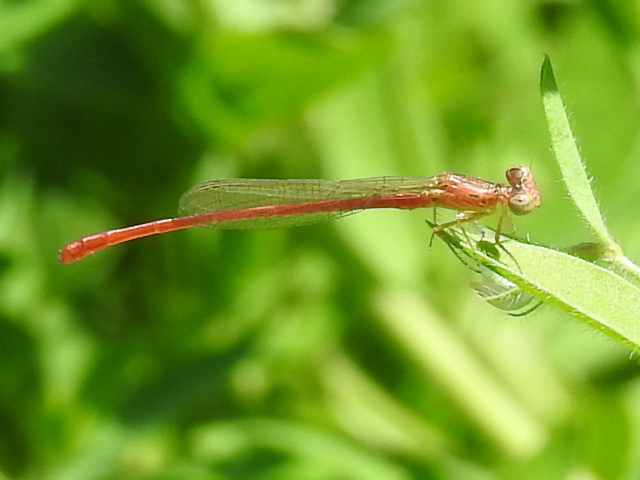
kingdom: Animalia
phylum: Arthropoda
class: Insecta
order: Odonata
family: Coenagrionidae
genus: Telebasis
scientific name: Telebasis salva
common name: Desert firetail
